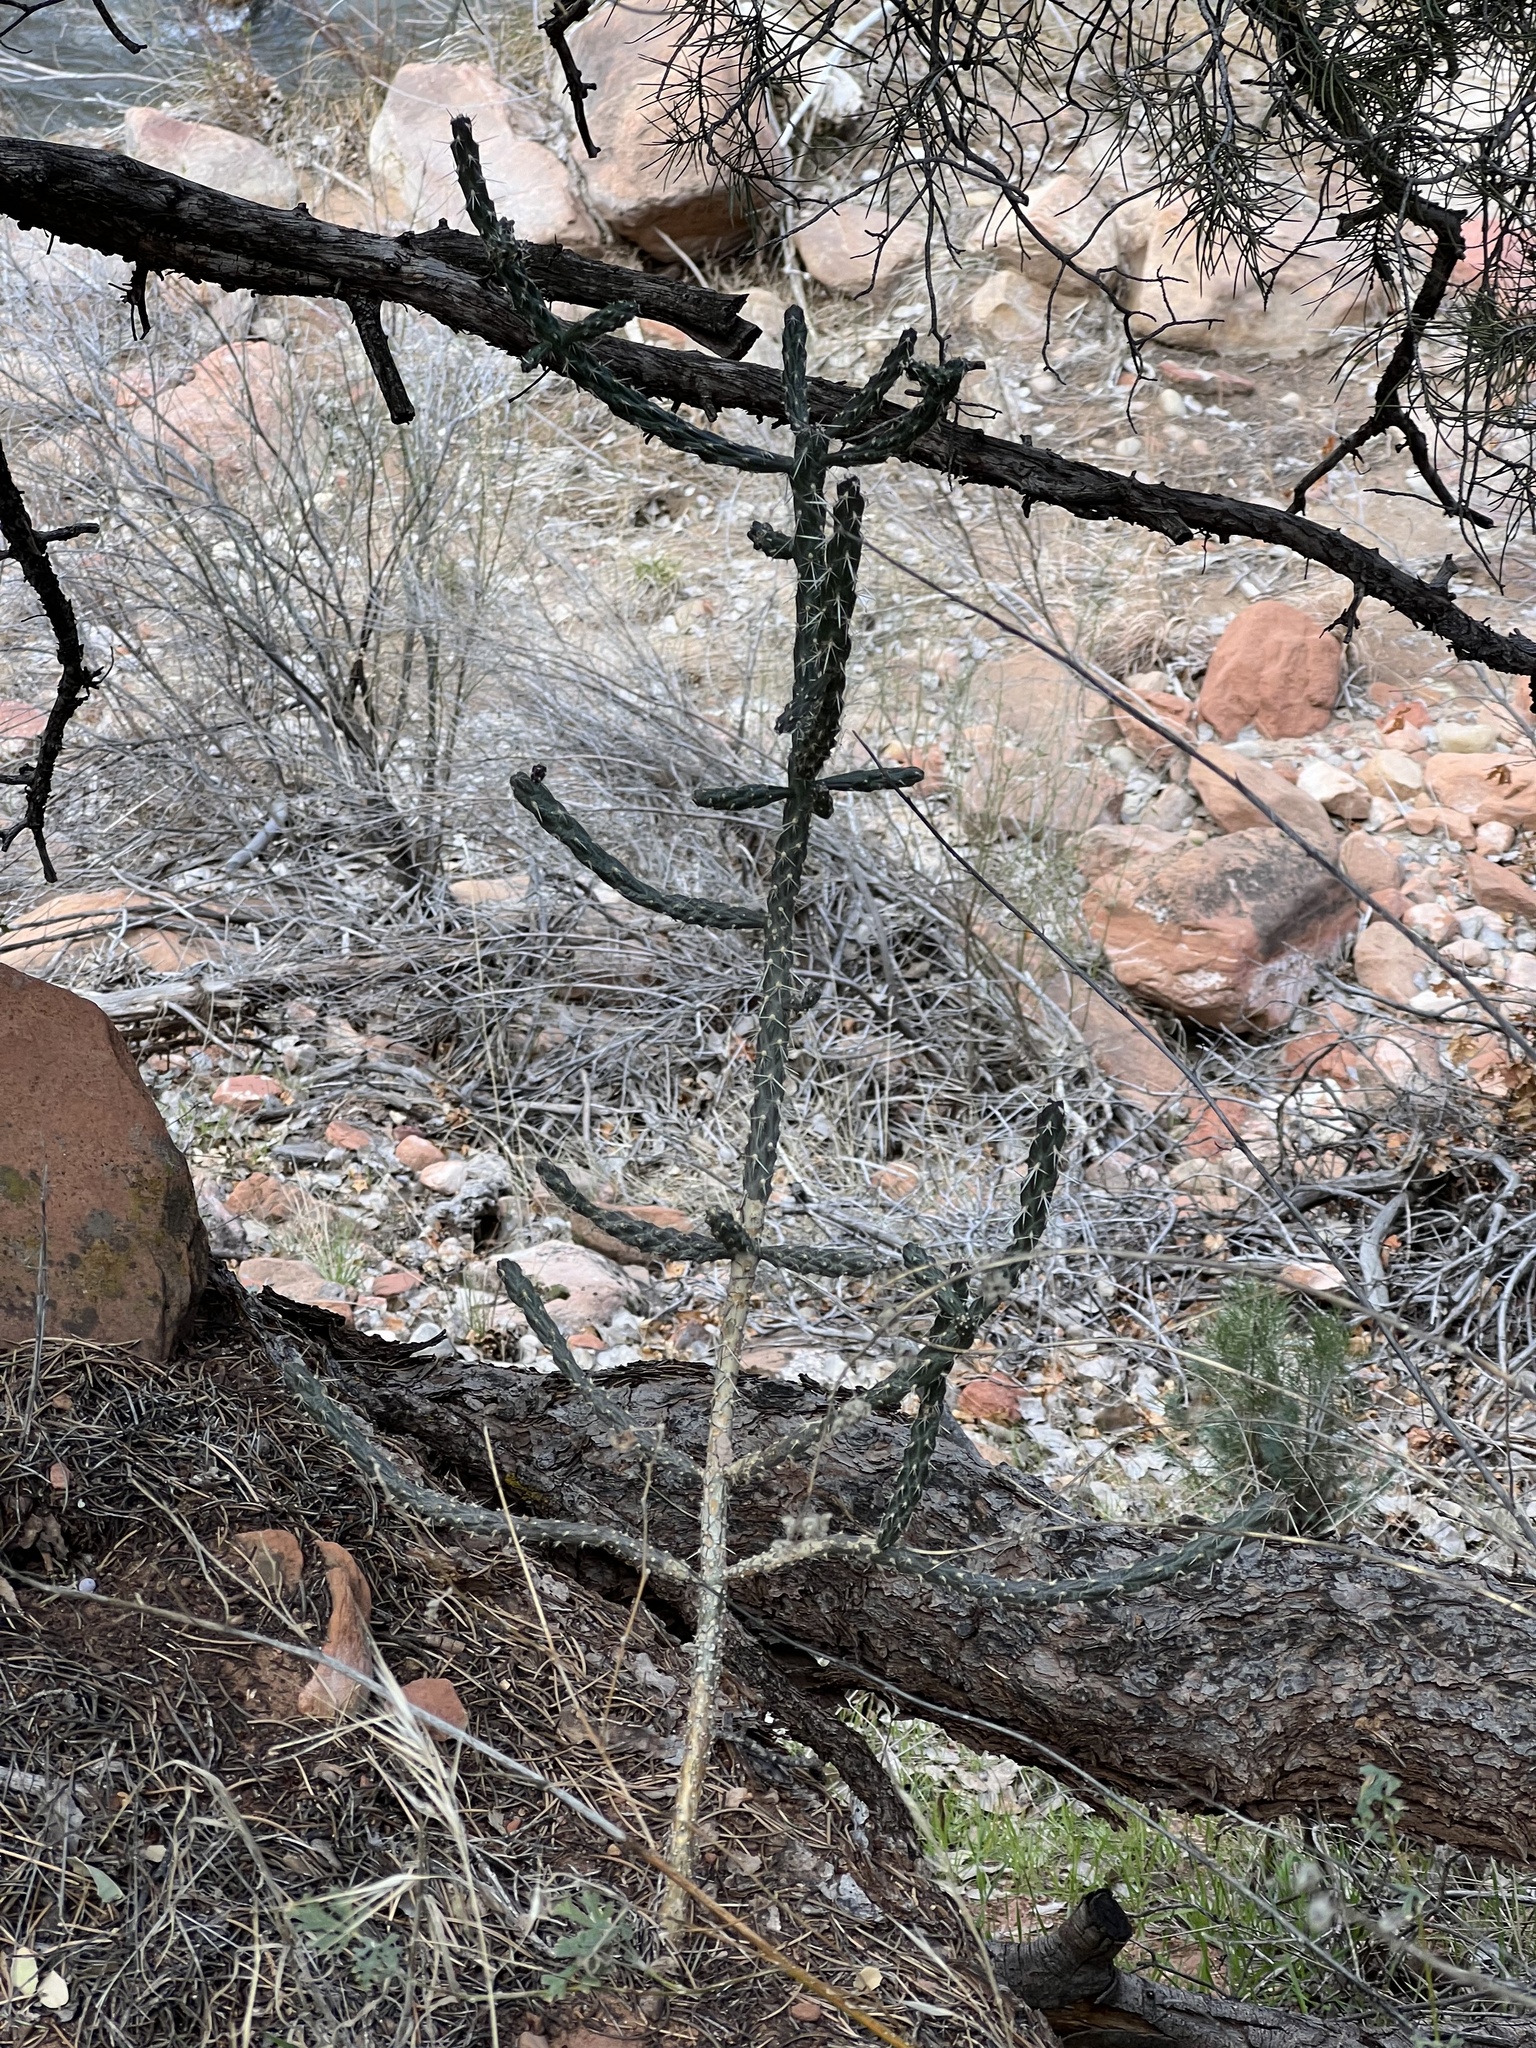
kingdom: Plantae
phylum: Tracheophyta
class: Magnoliopsida
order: Caryophyllales
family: Cactaceae
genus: Cylindropuntia
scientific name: Cylindropuntia whipplei
